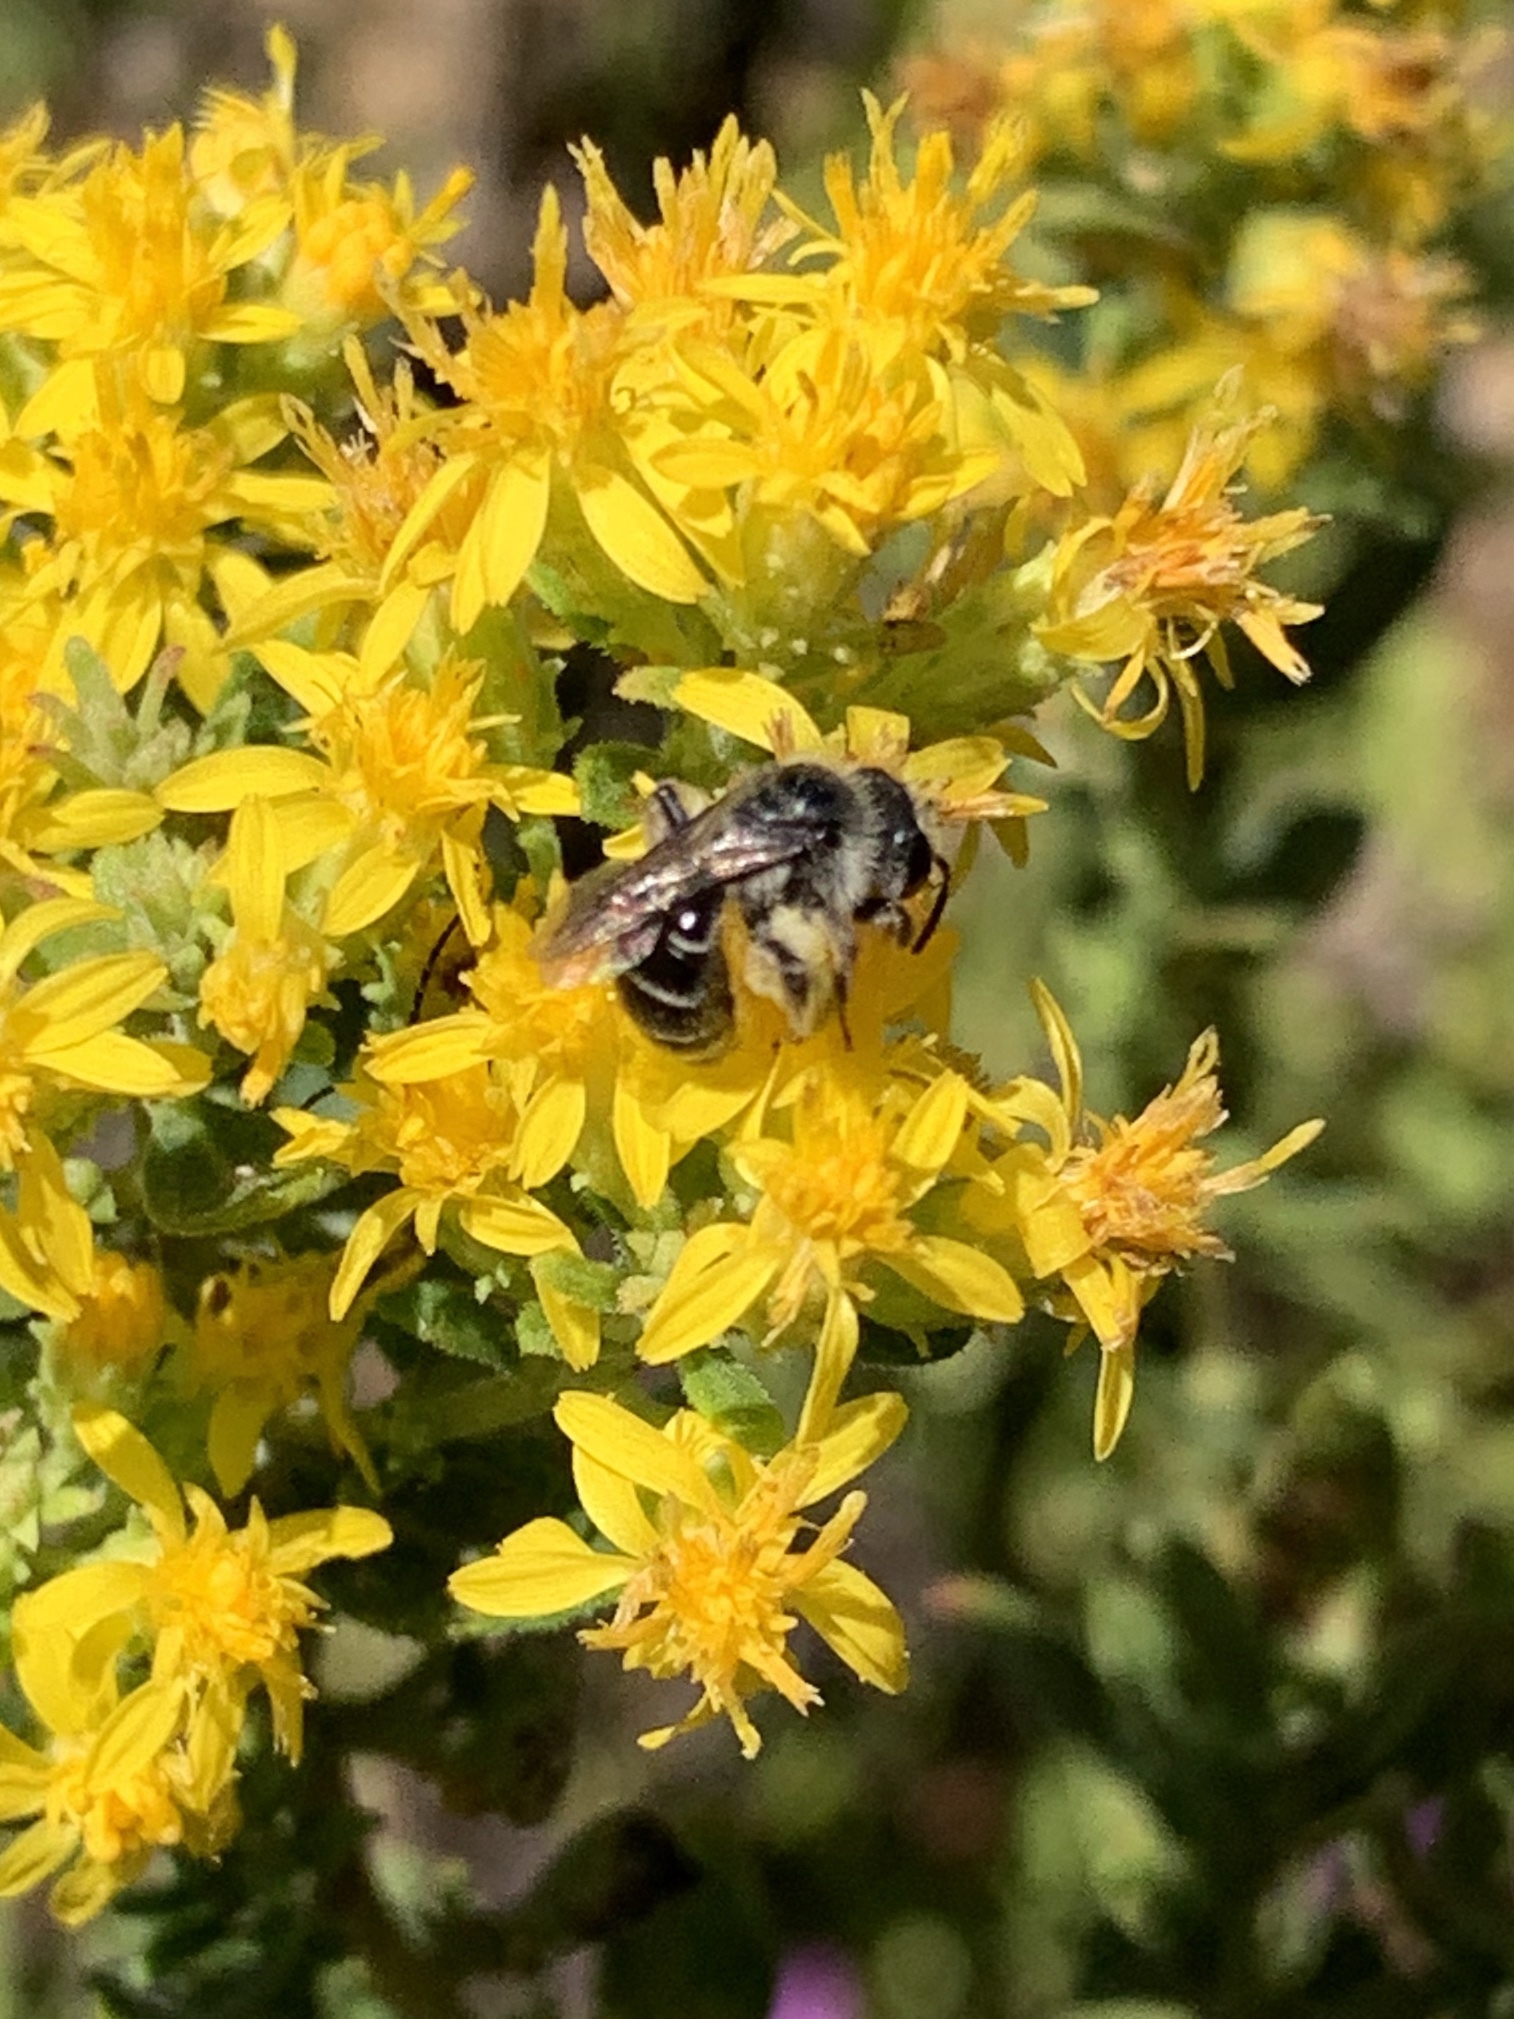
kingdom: Animalia
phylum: Arthropoda
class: Insecta
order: Hymenoptera
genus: Callandrena
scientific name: Callandrena
